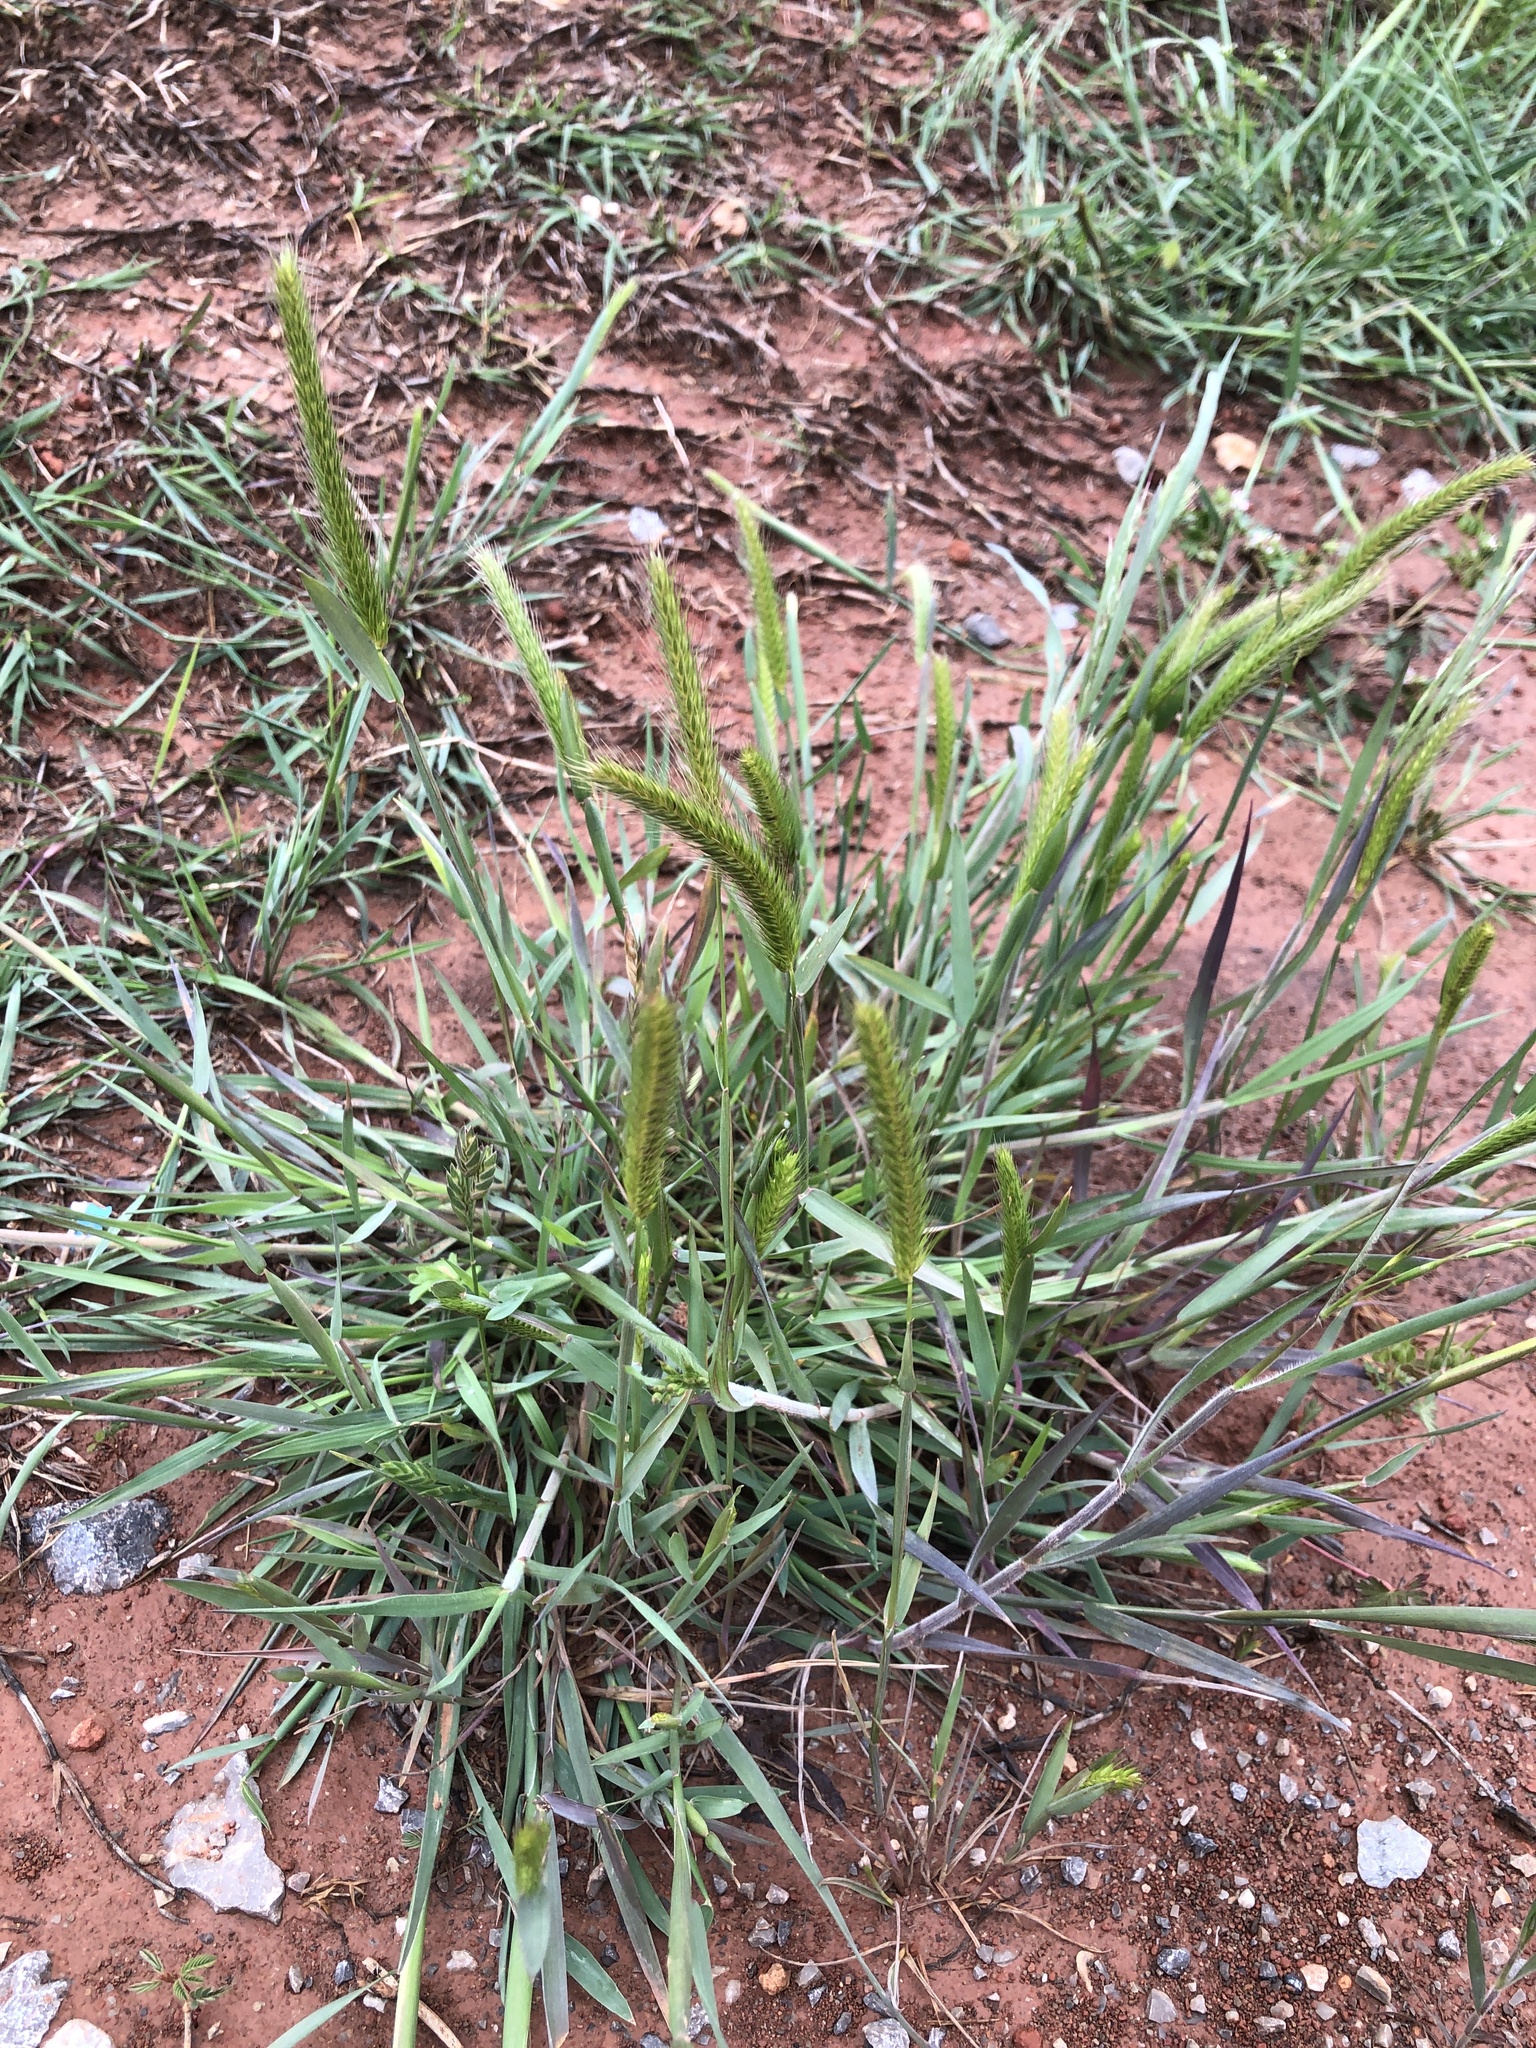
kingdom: Plantae
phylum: Tracheophyta
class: Liliopsida
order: Poales
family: Poaceae
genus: Hordeum
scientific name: Hordeum pusillum
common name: Little barley
